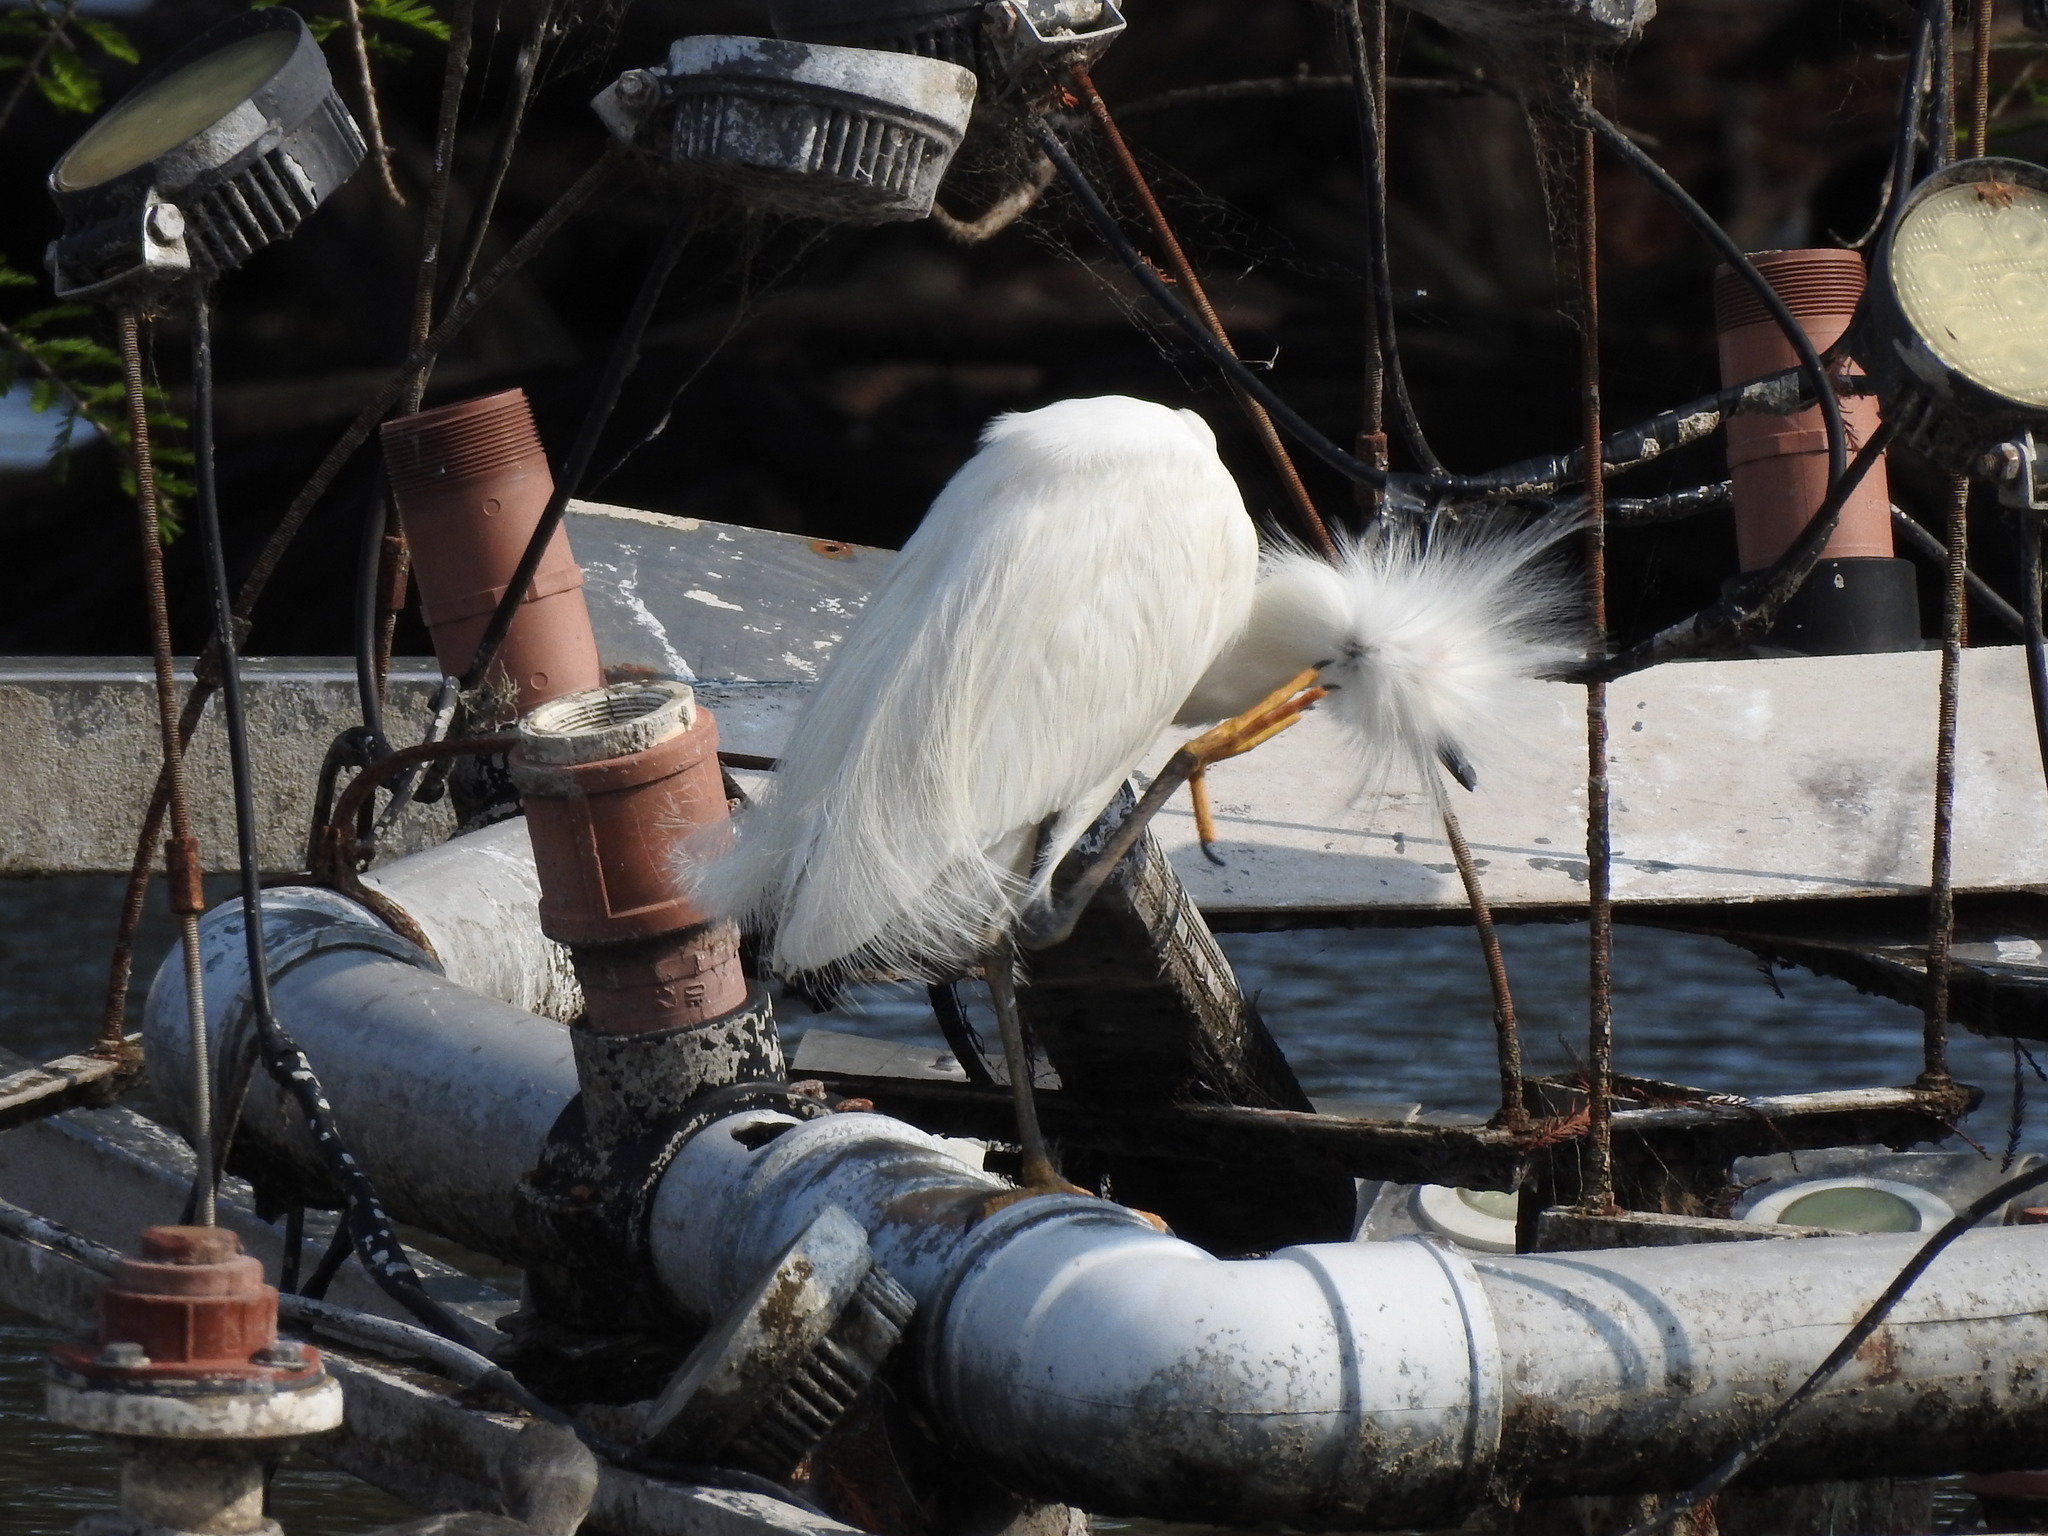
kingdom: Animalia
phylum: Chordata
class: Aves
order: Pelecaniformes
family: Ardeidae
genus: Egretta
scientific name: Egretta thula
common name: Snowy egret
